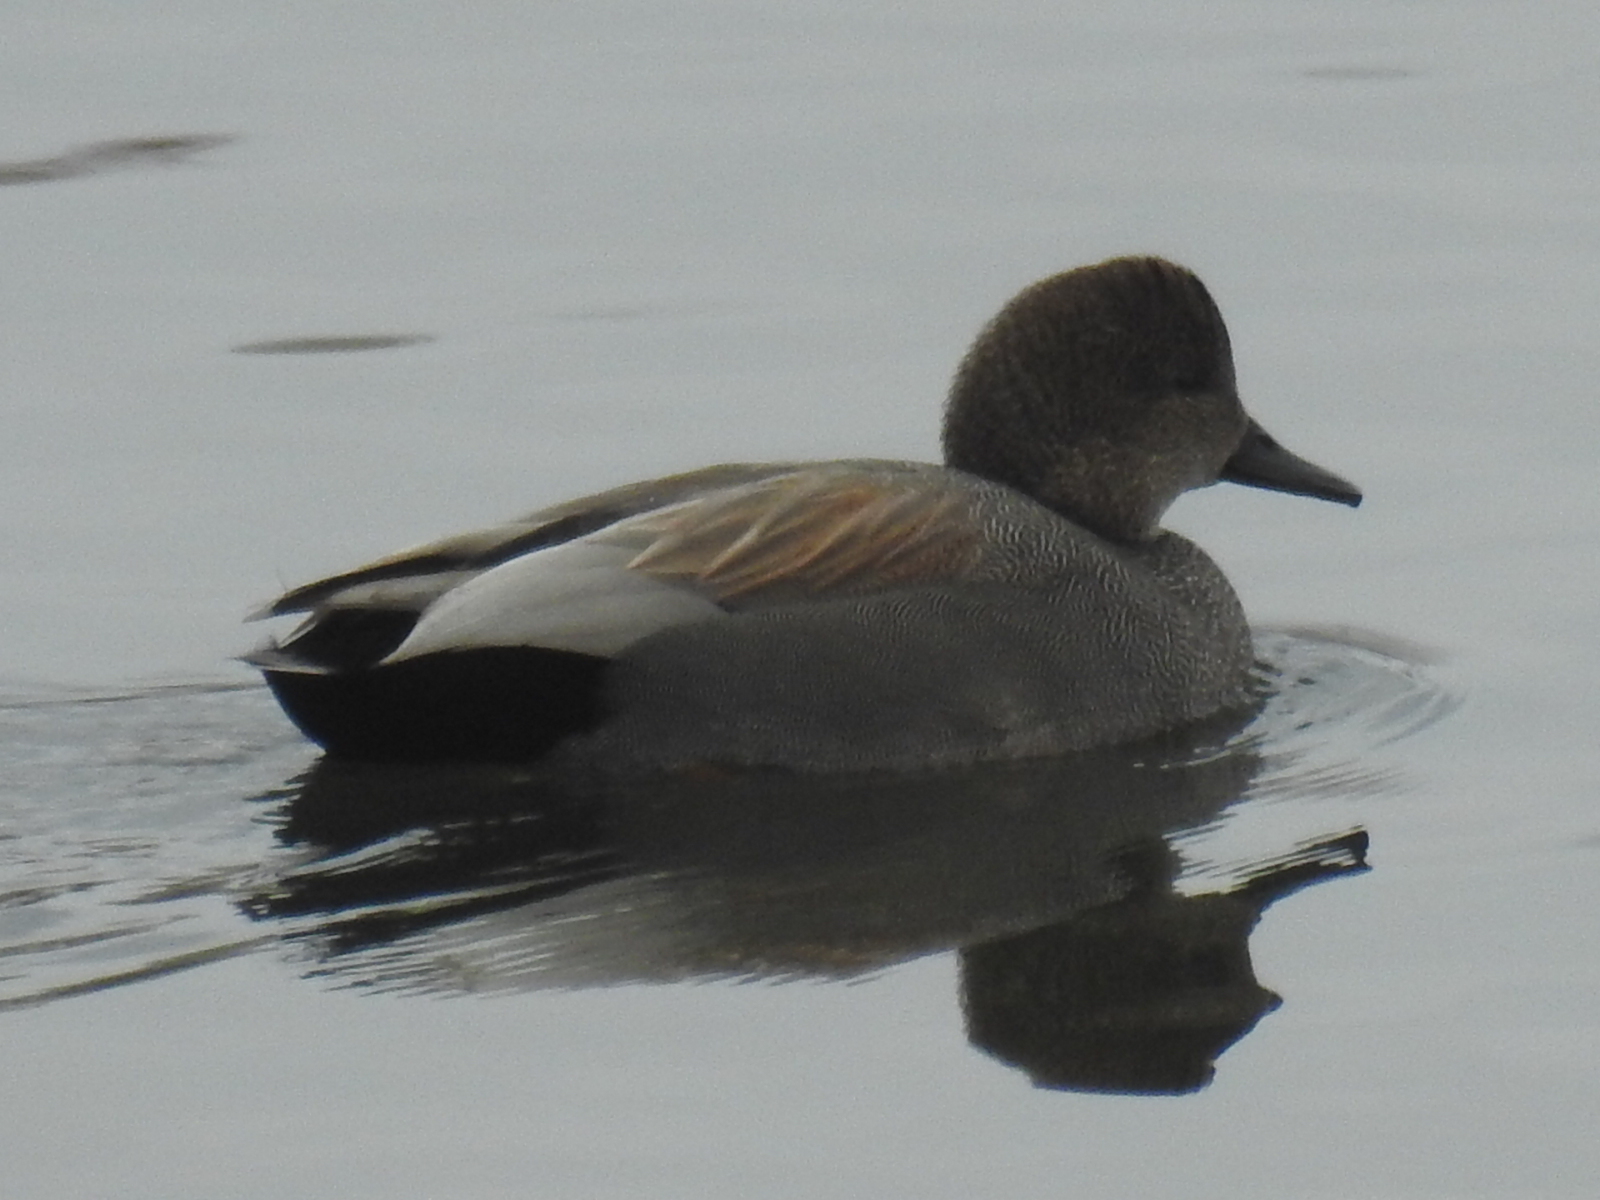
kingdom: Animalia
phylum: Chordata
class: Aves
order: Anseriformes
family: Anatidae
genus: Mareca
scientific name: Mareca strepera
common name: Gadwall
